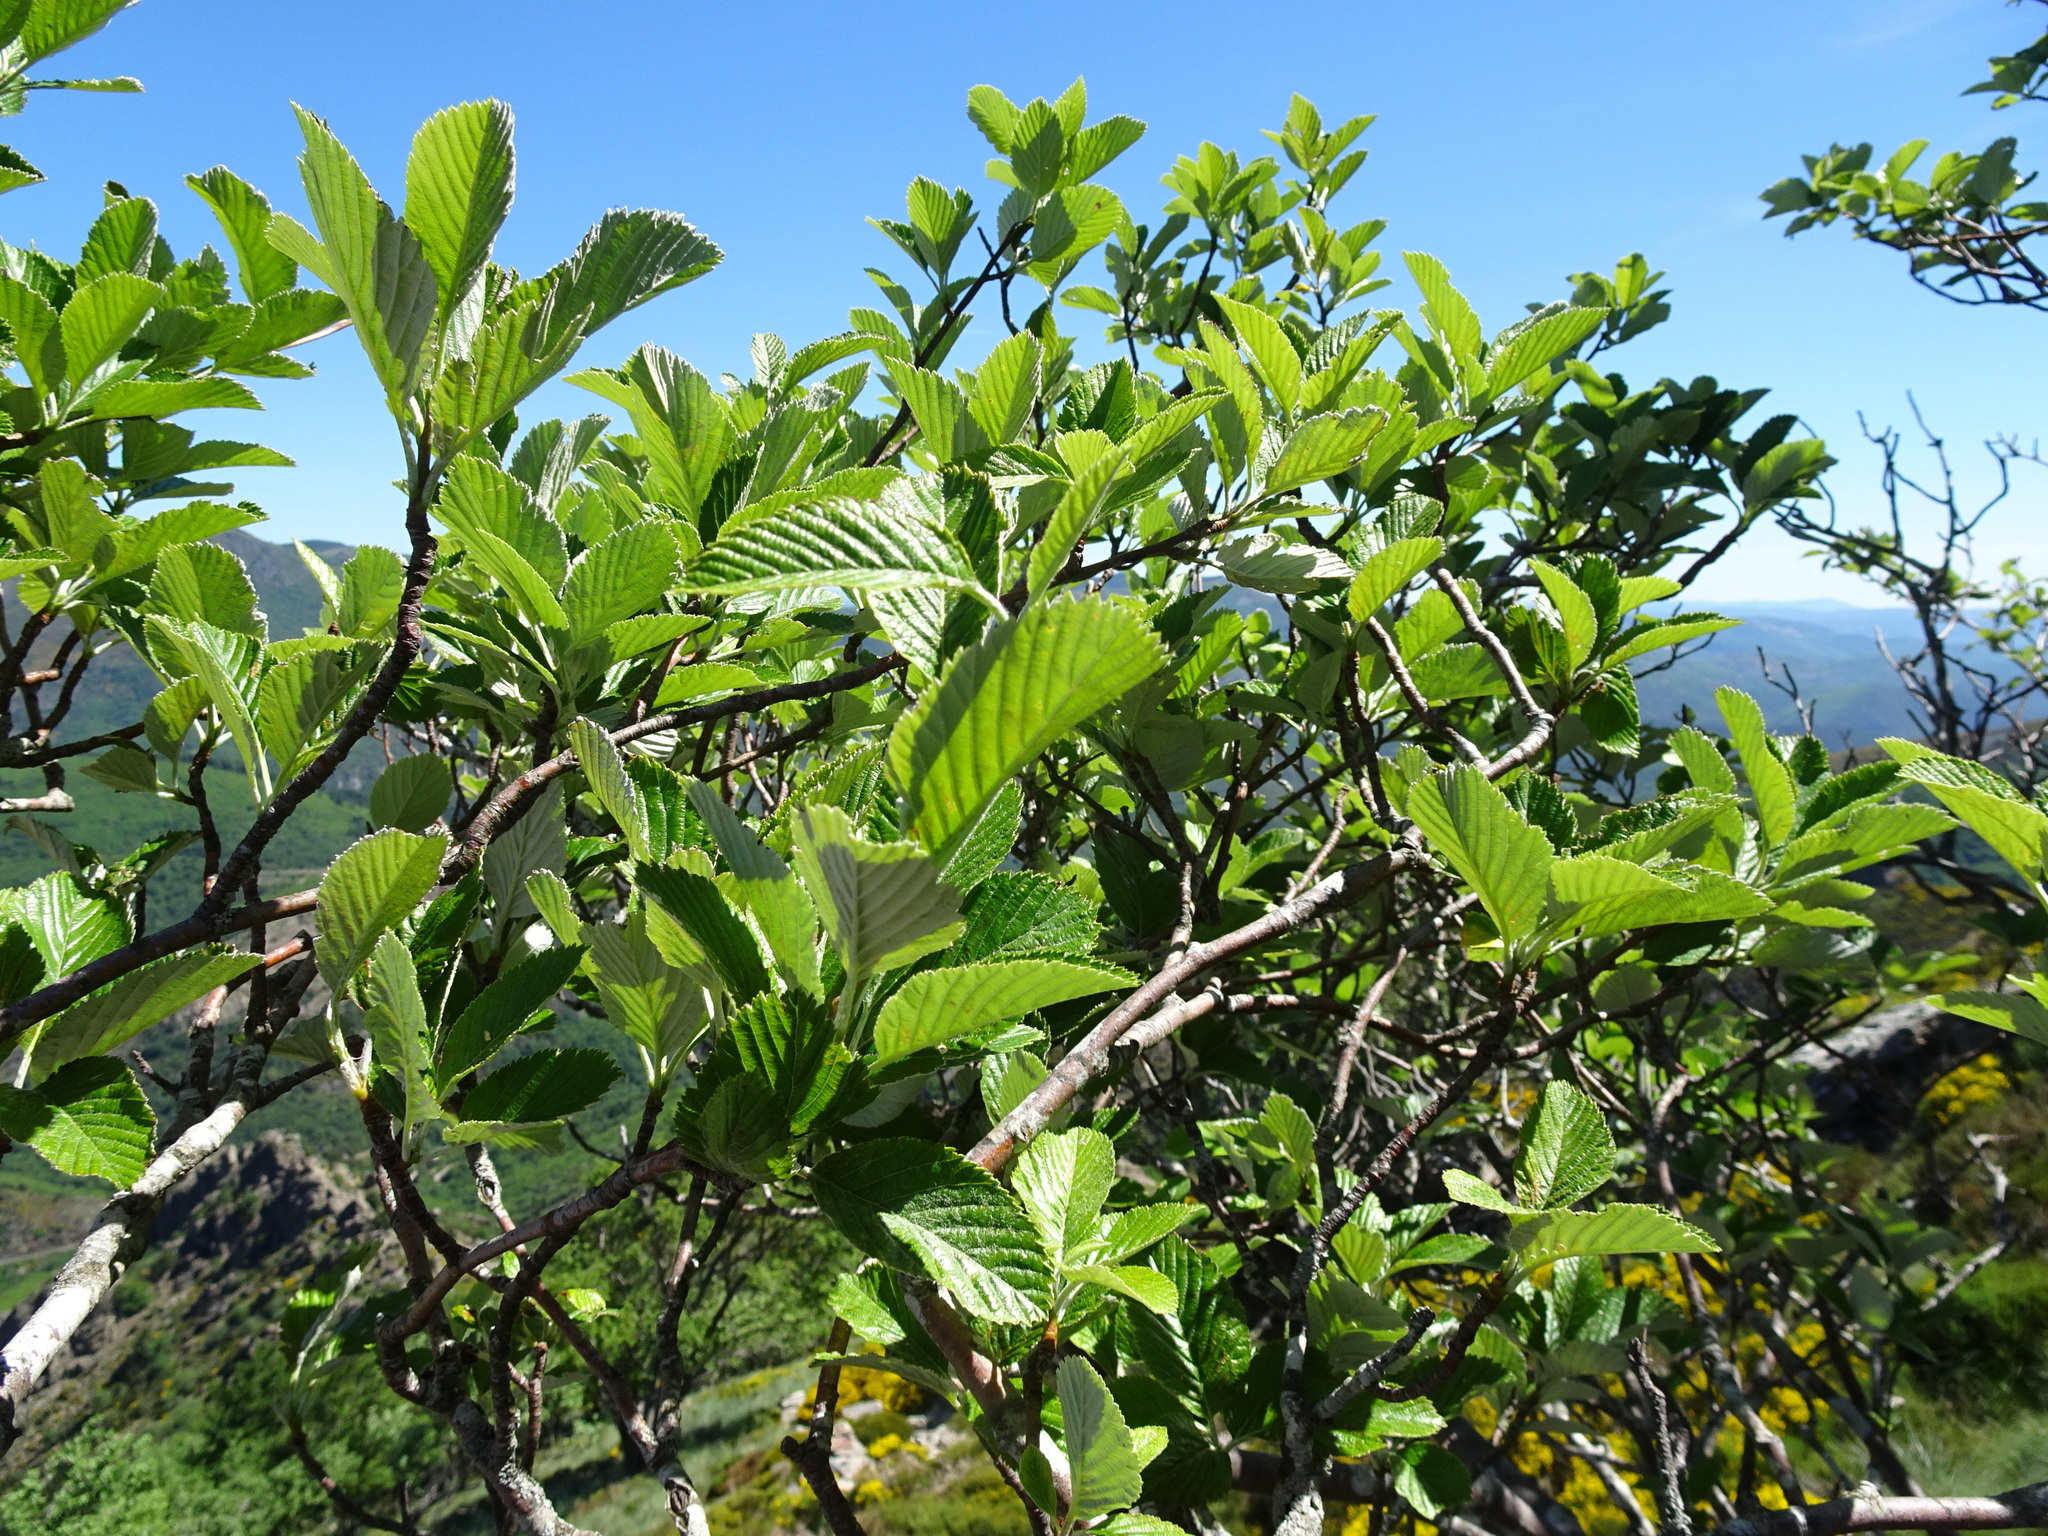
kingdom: Plantae
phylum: Tracheophyta
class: Magnoliopsida
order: Rosales
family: Rosaceae
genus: Aria
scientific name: Aria edulis
